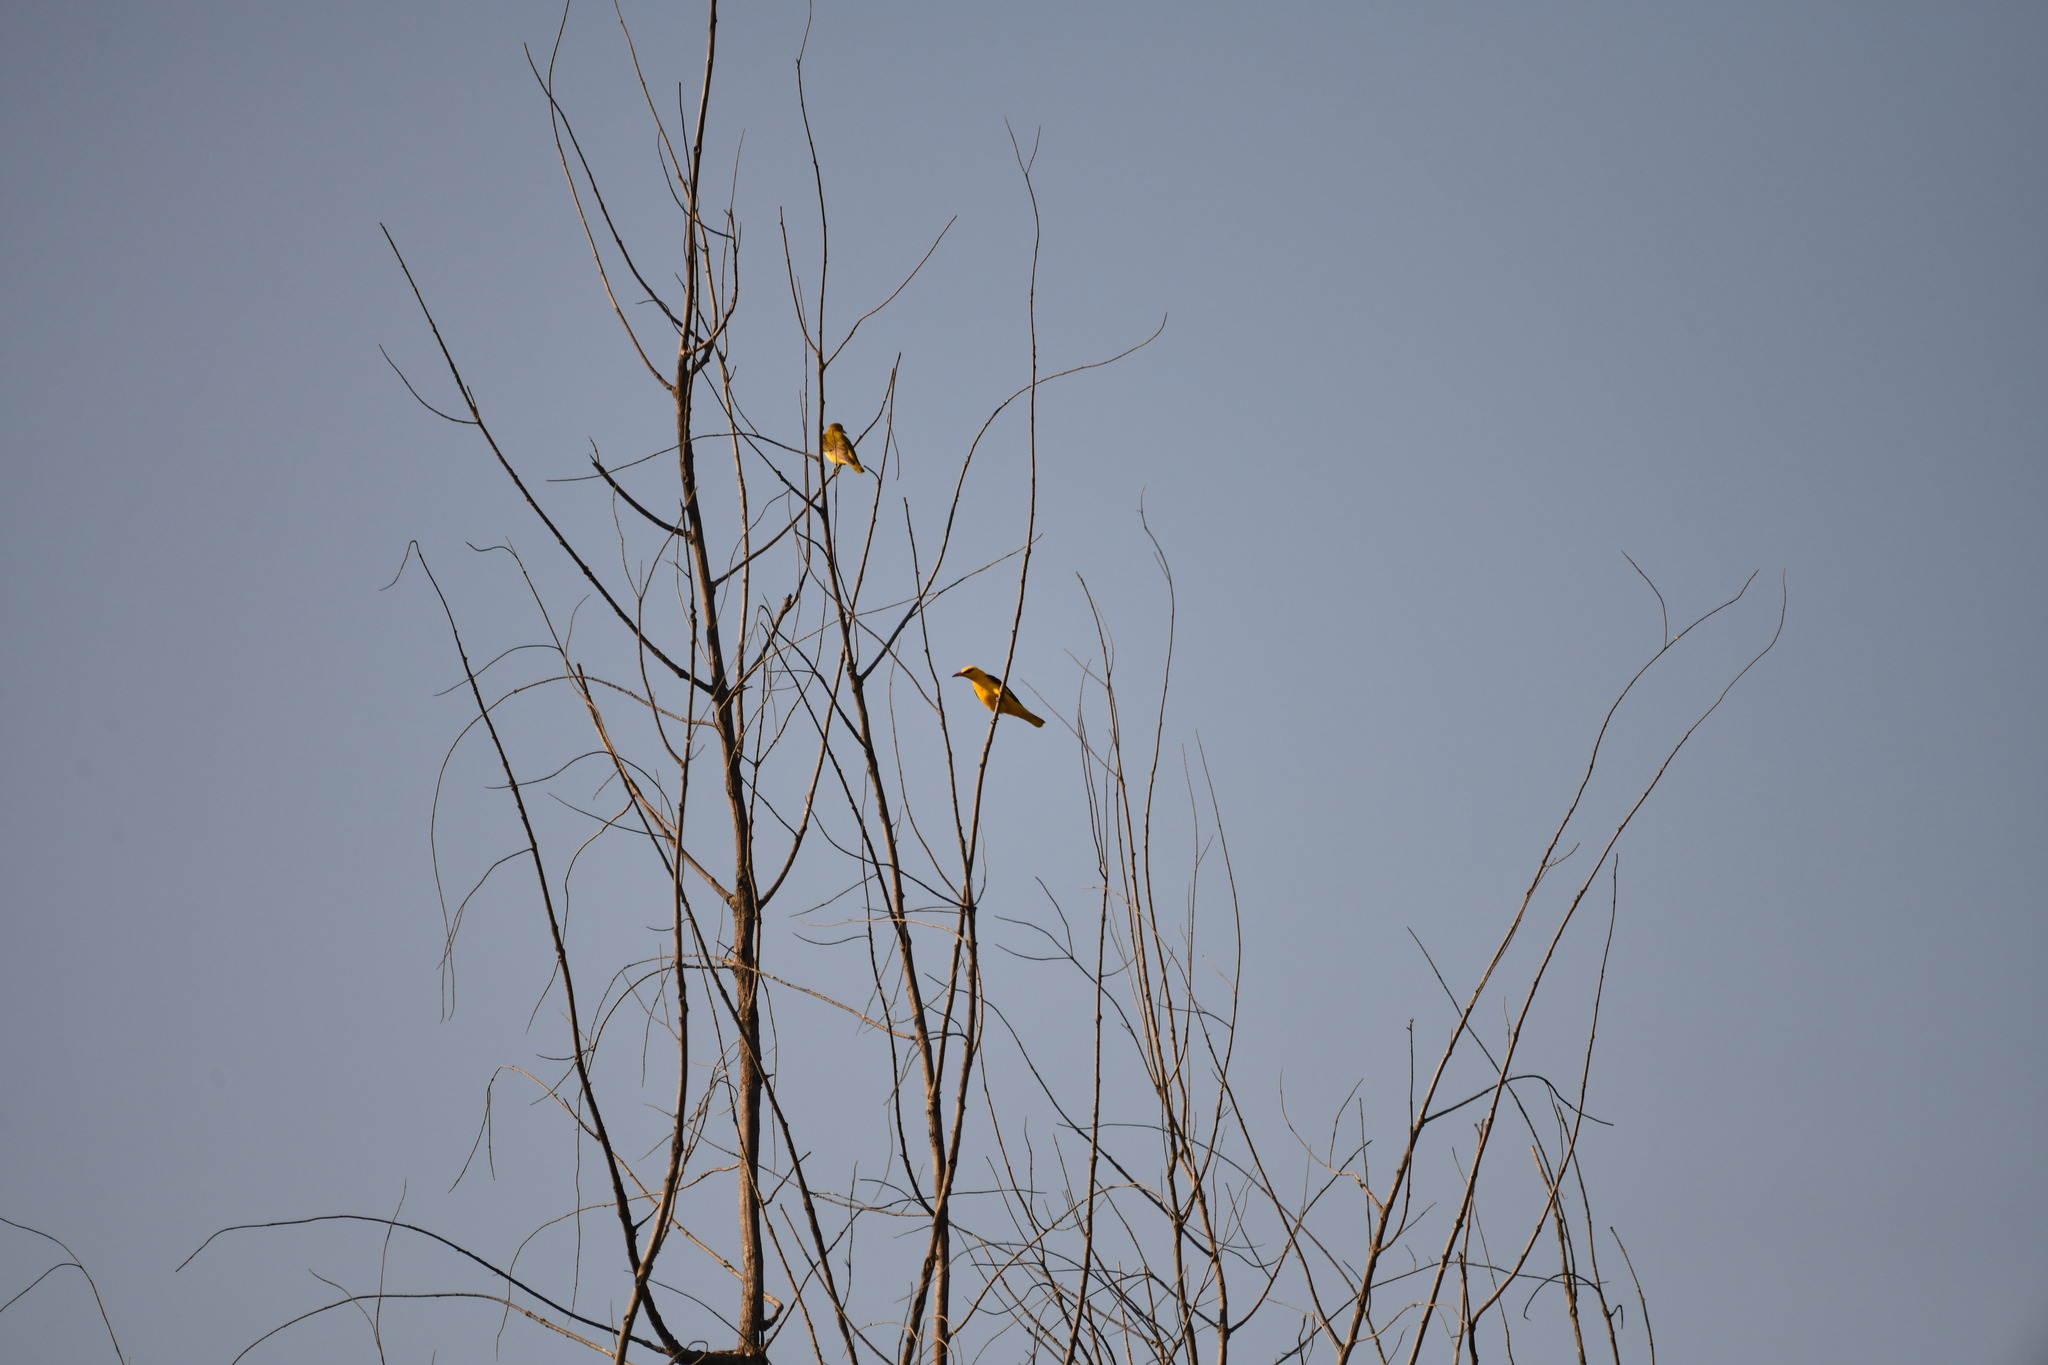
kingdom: Animalia
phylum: Chordata
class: Aves
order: Passeriformes
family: Oriolidae
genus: Oriolus
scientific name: Oriolus kundoo
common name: Indian golden oriole
